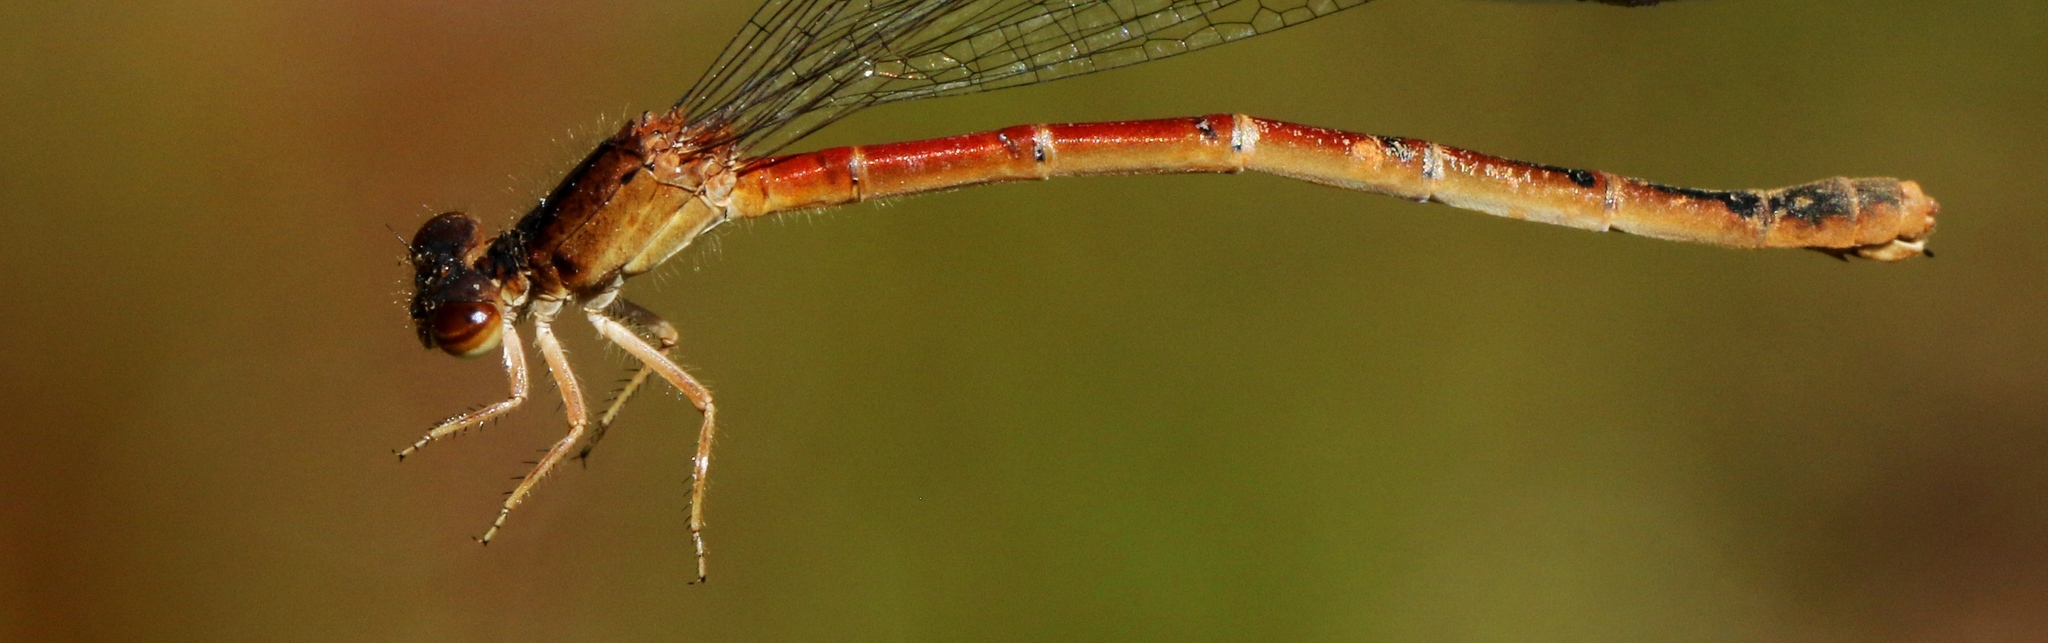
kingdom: Animalia
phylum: Arthropoda
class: Insecta
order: Odonata
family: Coenagrionidae
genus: Amphiagrion
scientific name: Amphiagrion saucium
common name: Eastern red damsel
